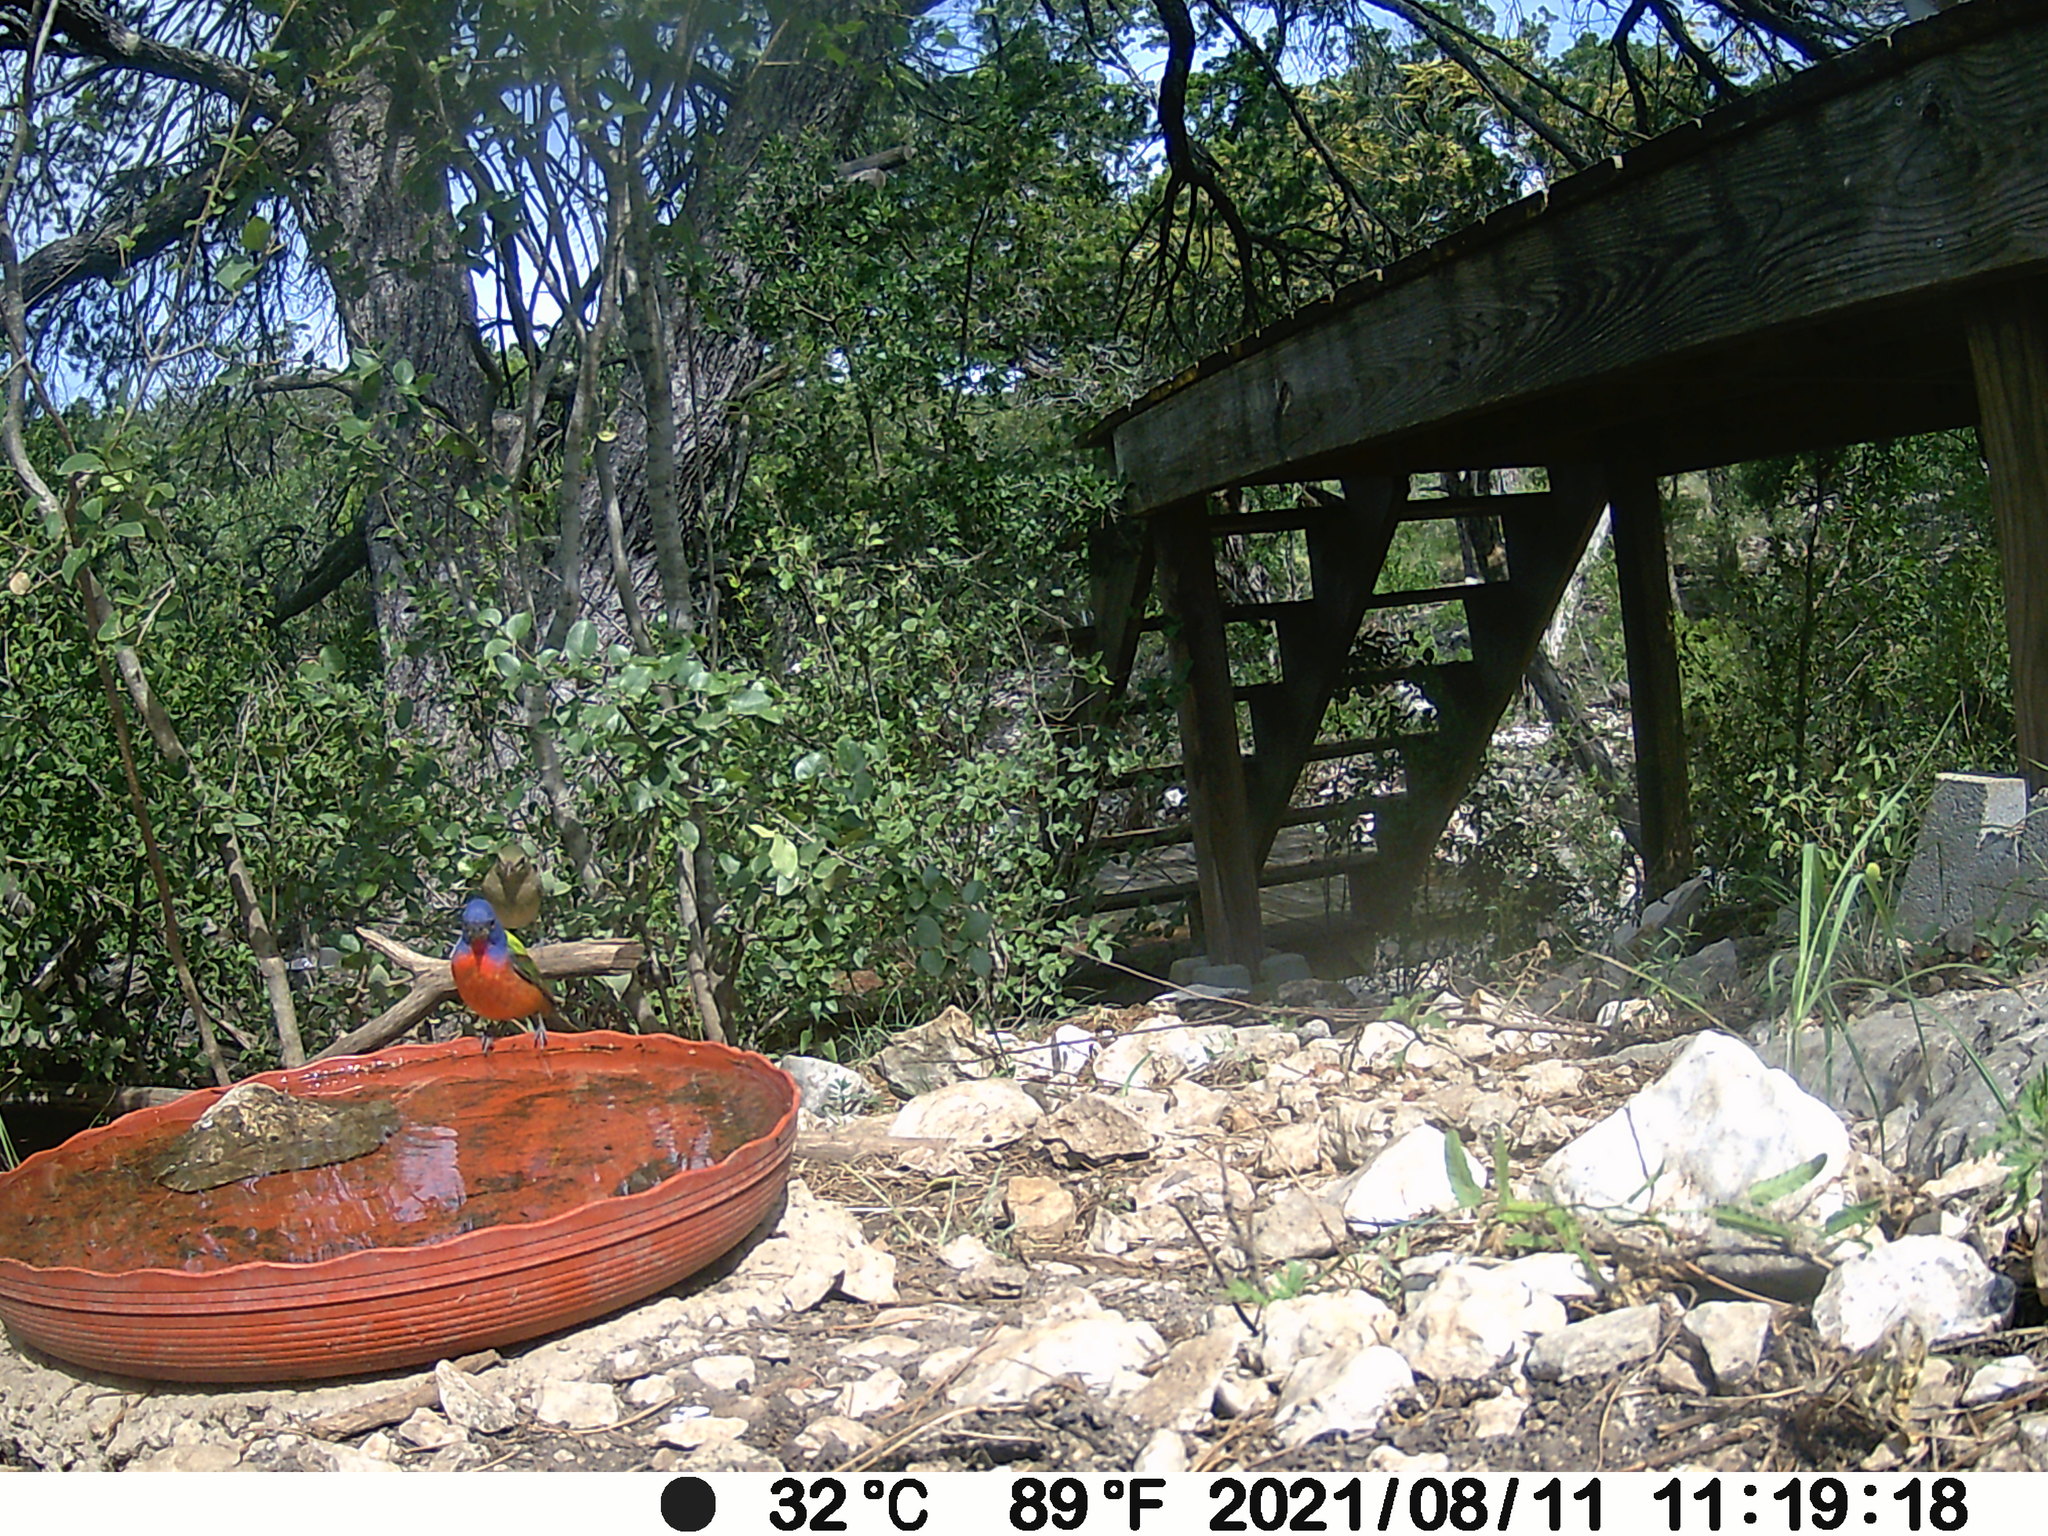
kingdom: Animalia
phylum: Chordata
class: Aves
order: Passeriformes
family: Cardinalidae
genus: Passerina
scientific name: Passerina ciris
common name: Painted bunting
